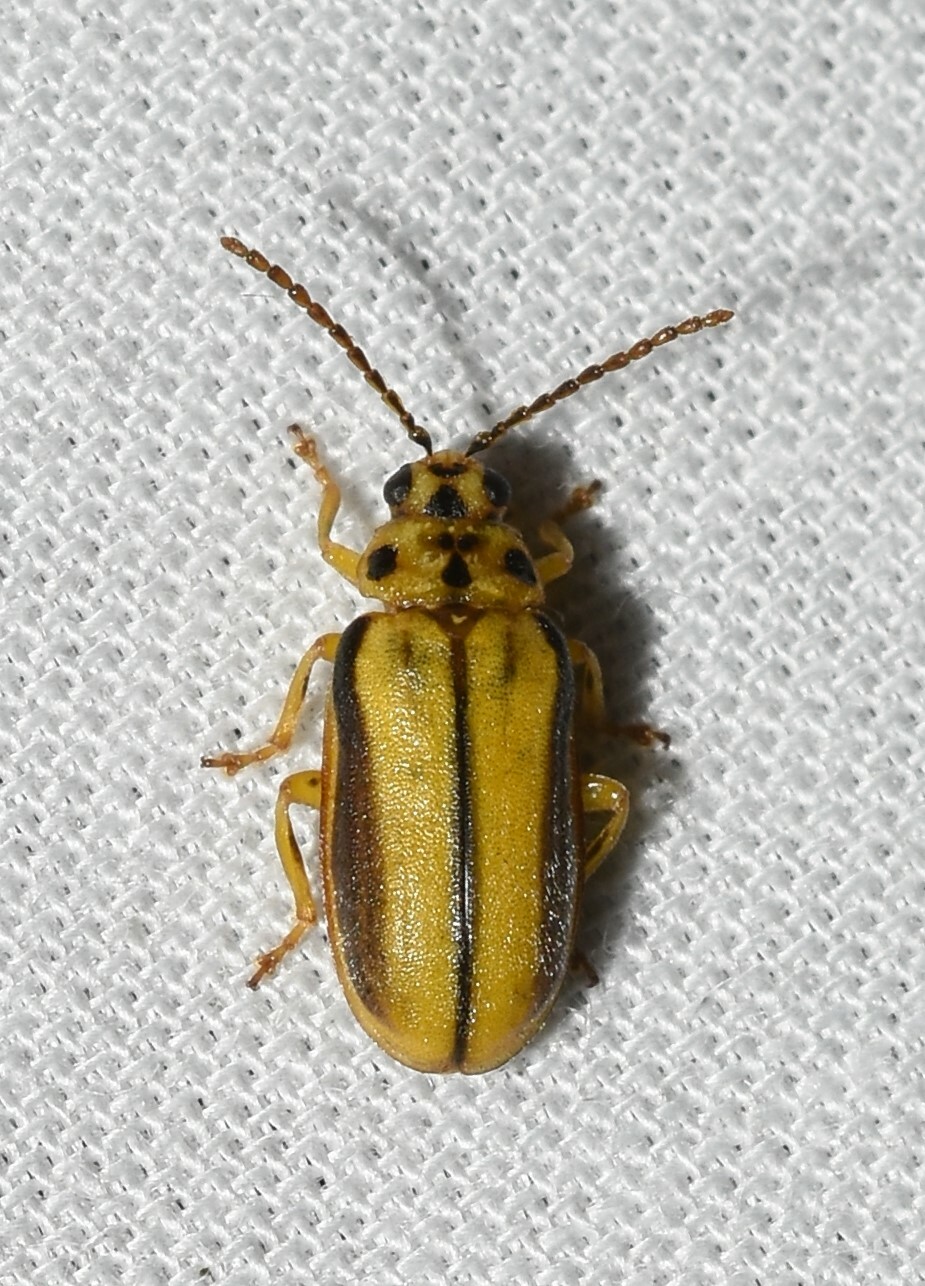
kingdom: Animalia
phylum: Arthropoda
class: Insecta
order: Coleoptera
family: Chrysomelidae
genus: Xanthogaleruca
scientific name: Xanthogaleruca luteola
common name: Elm leaf beetle
